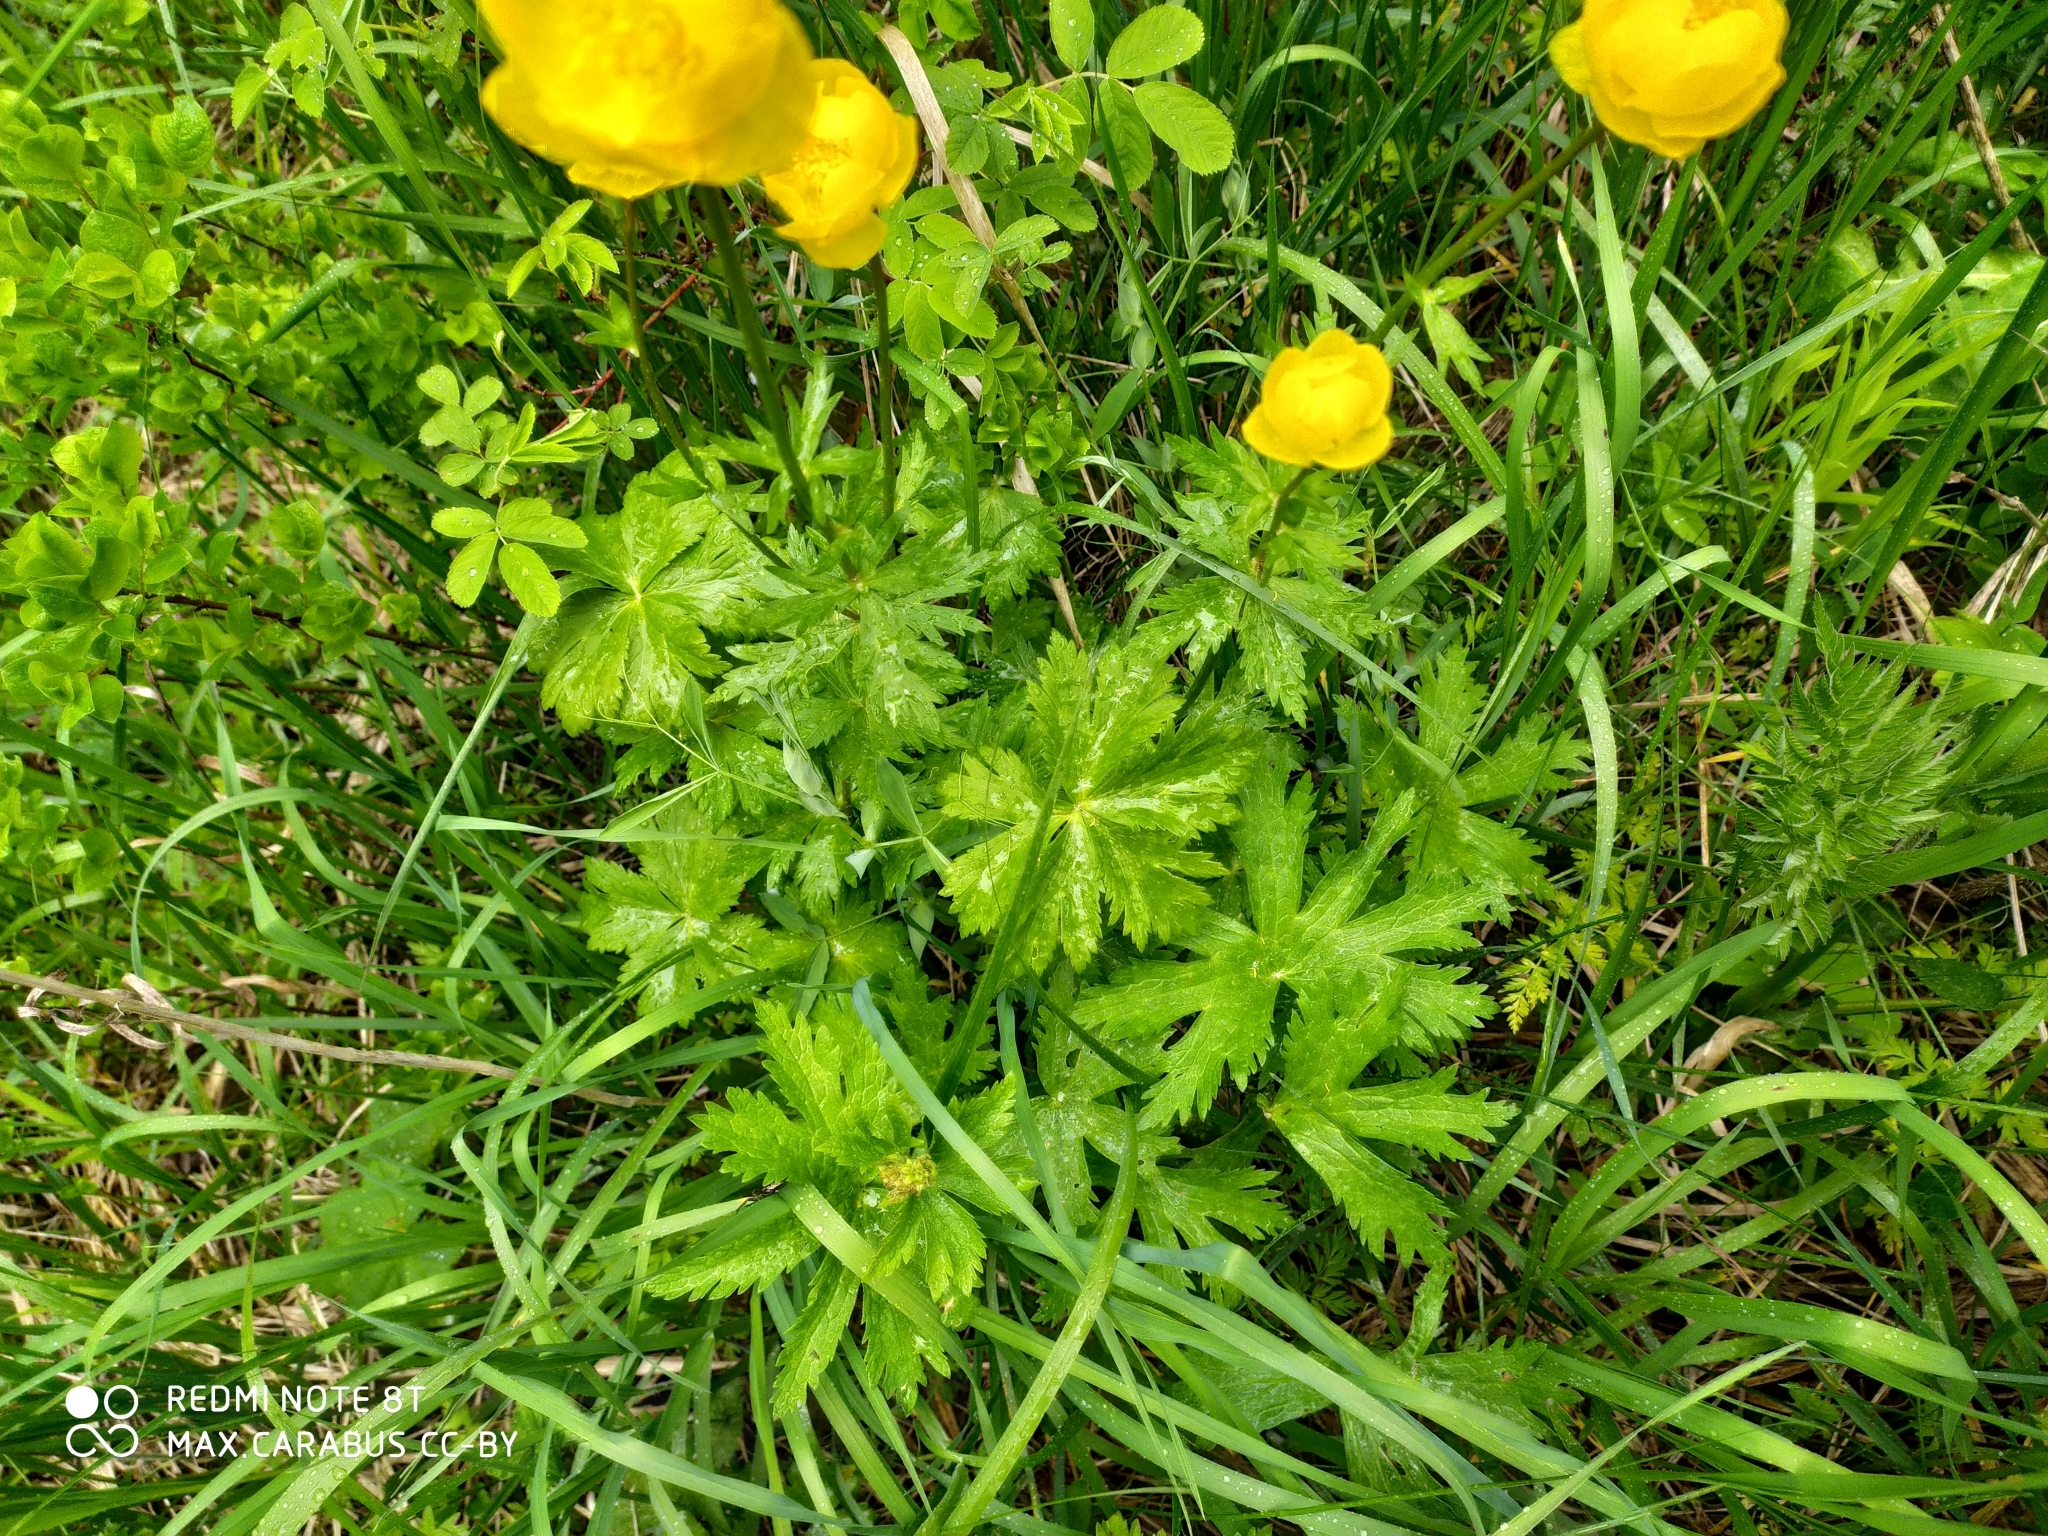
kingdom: Plantae
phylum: Tracheophyta
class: Magnoliopsida
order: Ranunculales
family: Ranunculaceae
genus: Trollius
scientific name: Trollius europaeus
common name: European globeflower
